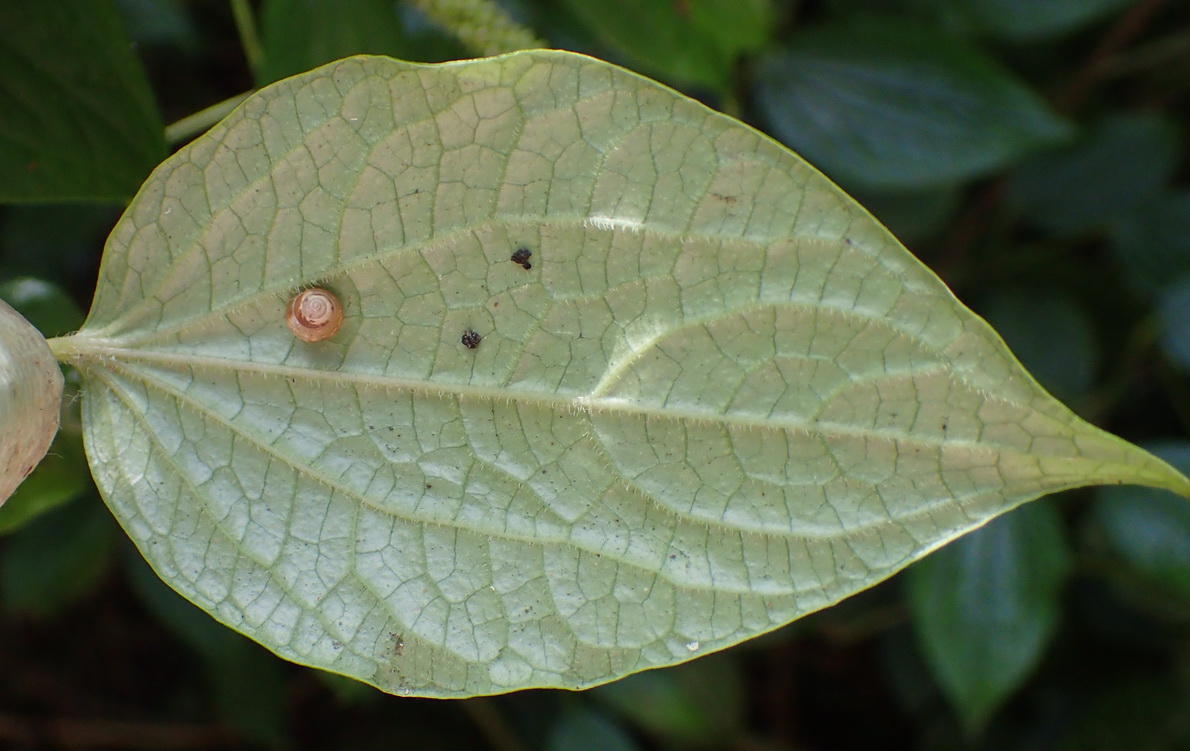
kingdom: Plantae
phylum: Tracheophyta
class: Magnoliopsida
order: Piperales
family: Piperaceae
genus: Piper
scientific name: Piper capense
